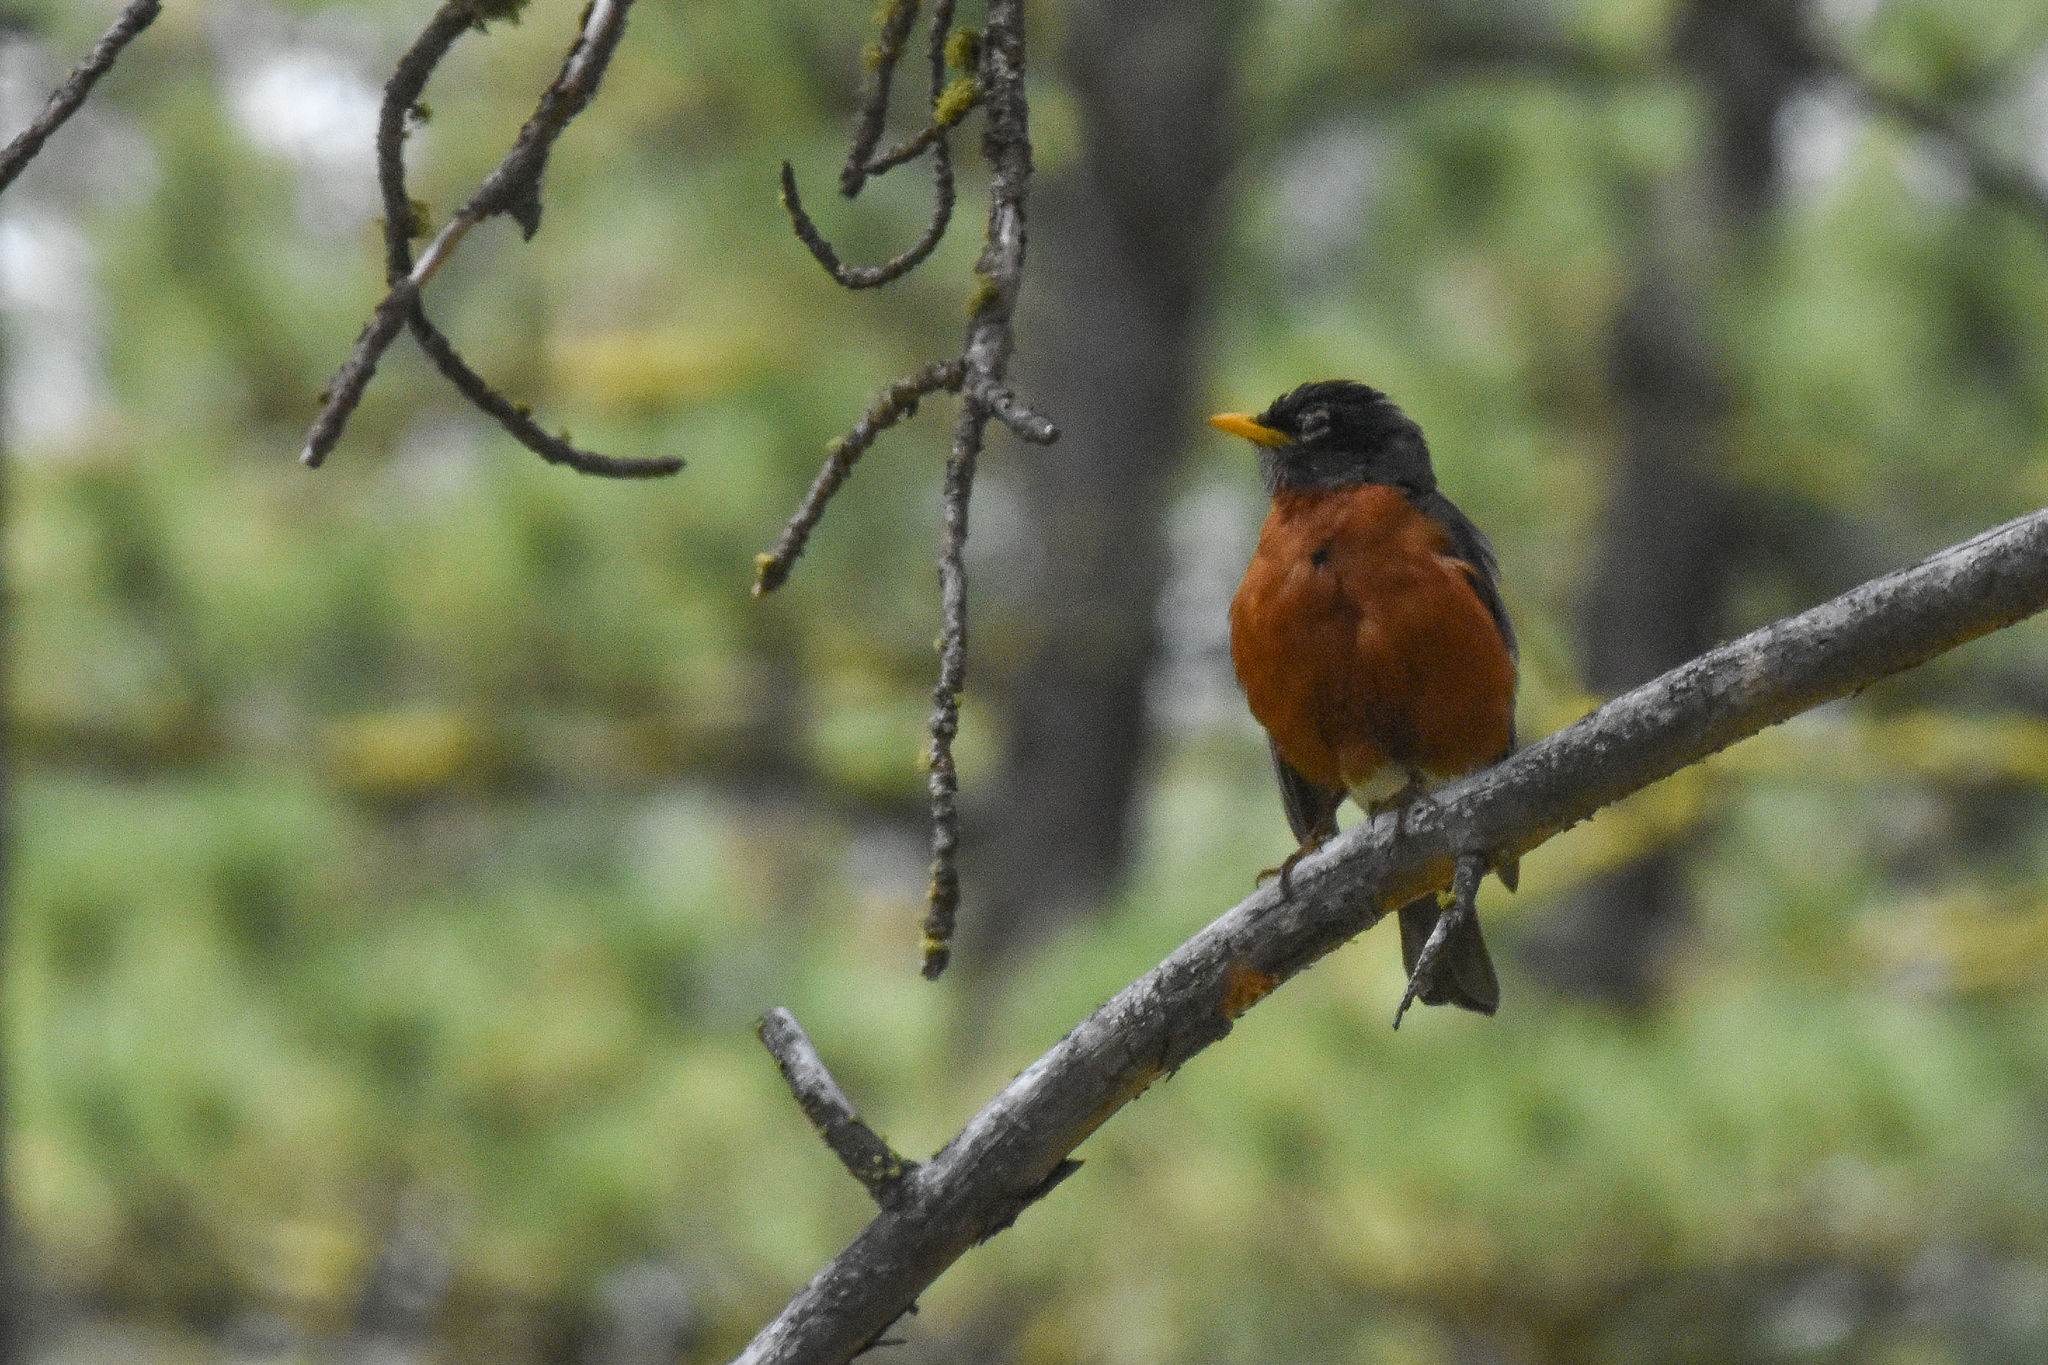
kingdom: Animalia
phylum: Chordata
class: Aves
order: Passeriformes
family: Turdidae
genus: Turdus
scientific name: Turdus migratorius
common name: American robin
